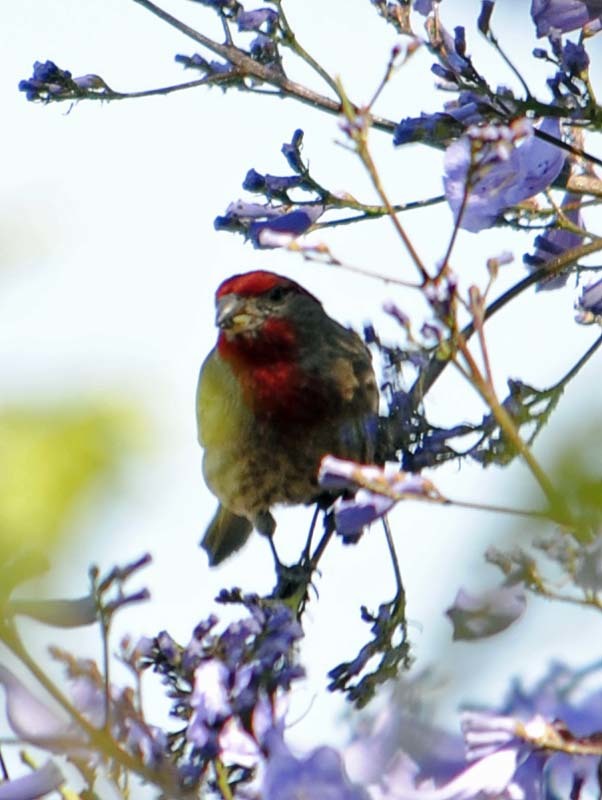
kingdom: Animalia
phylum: Chordata
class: Aves
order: Passeriformes
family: Fringillidae
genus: Haemorhous
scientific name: Haemorhous mexicanus
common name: House finch
